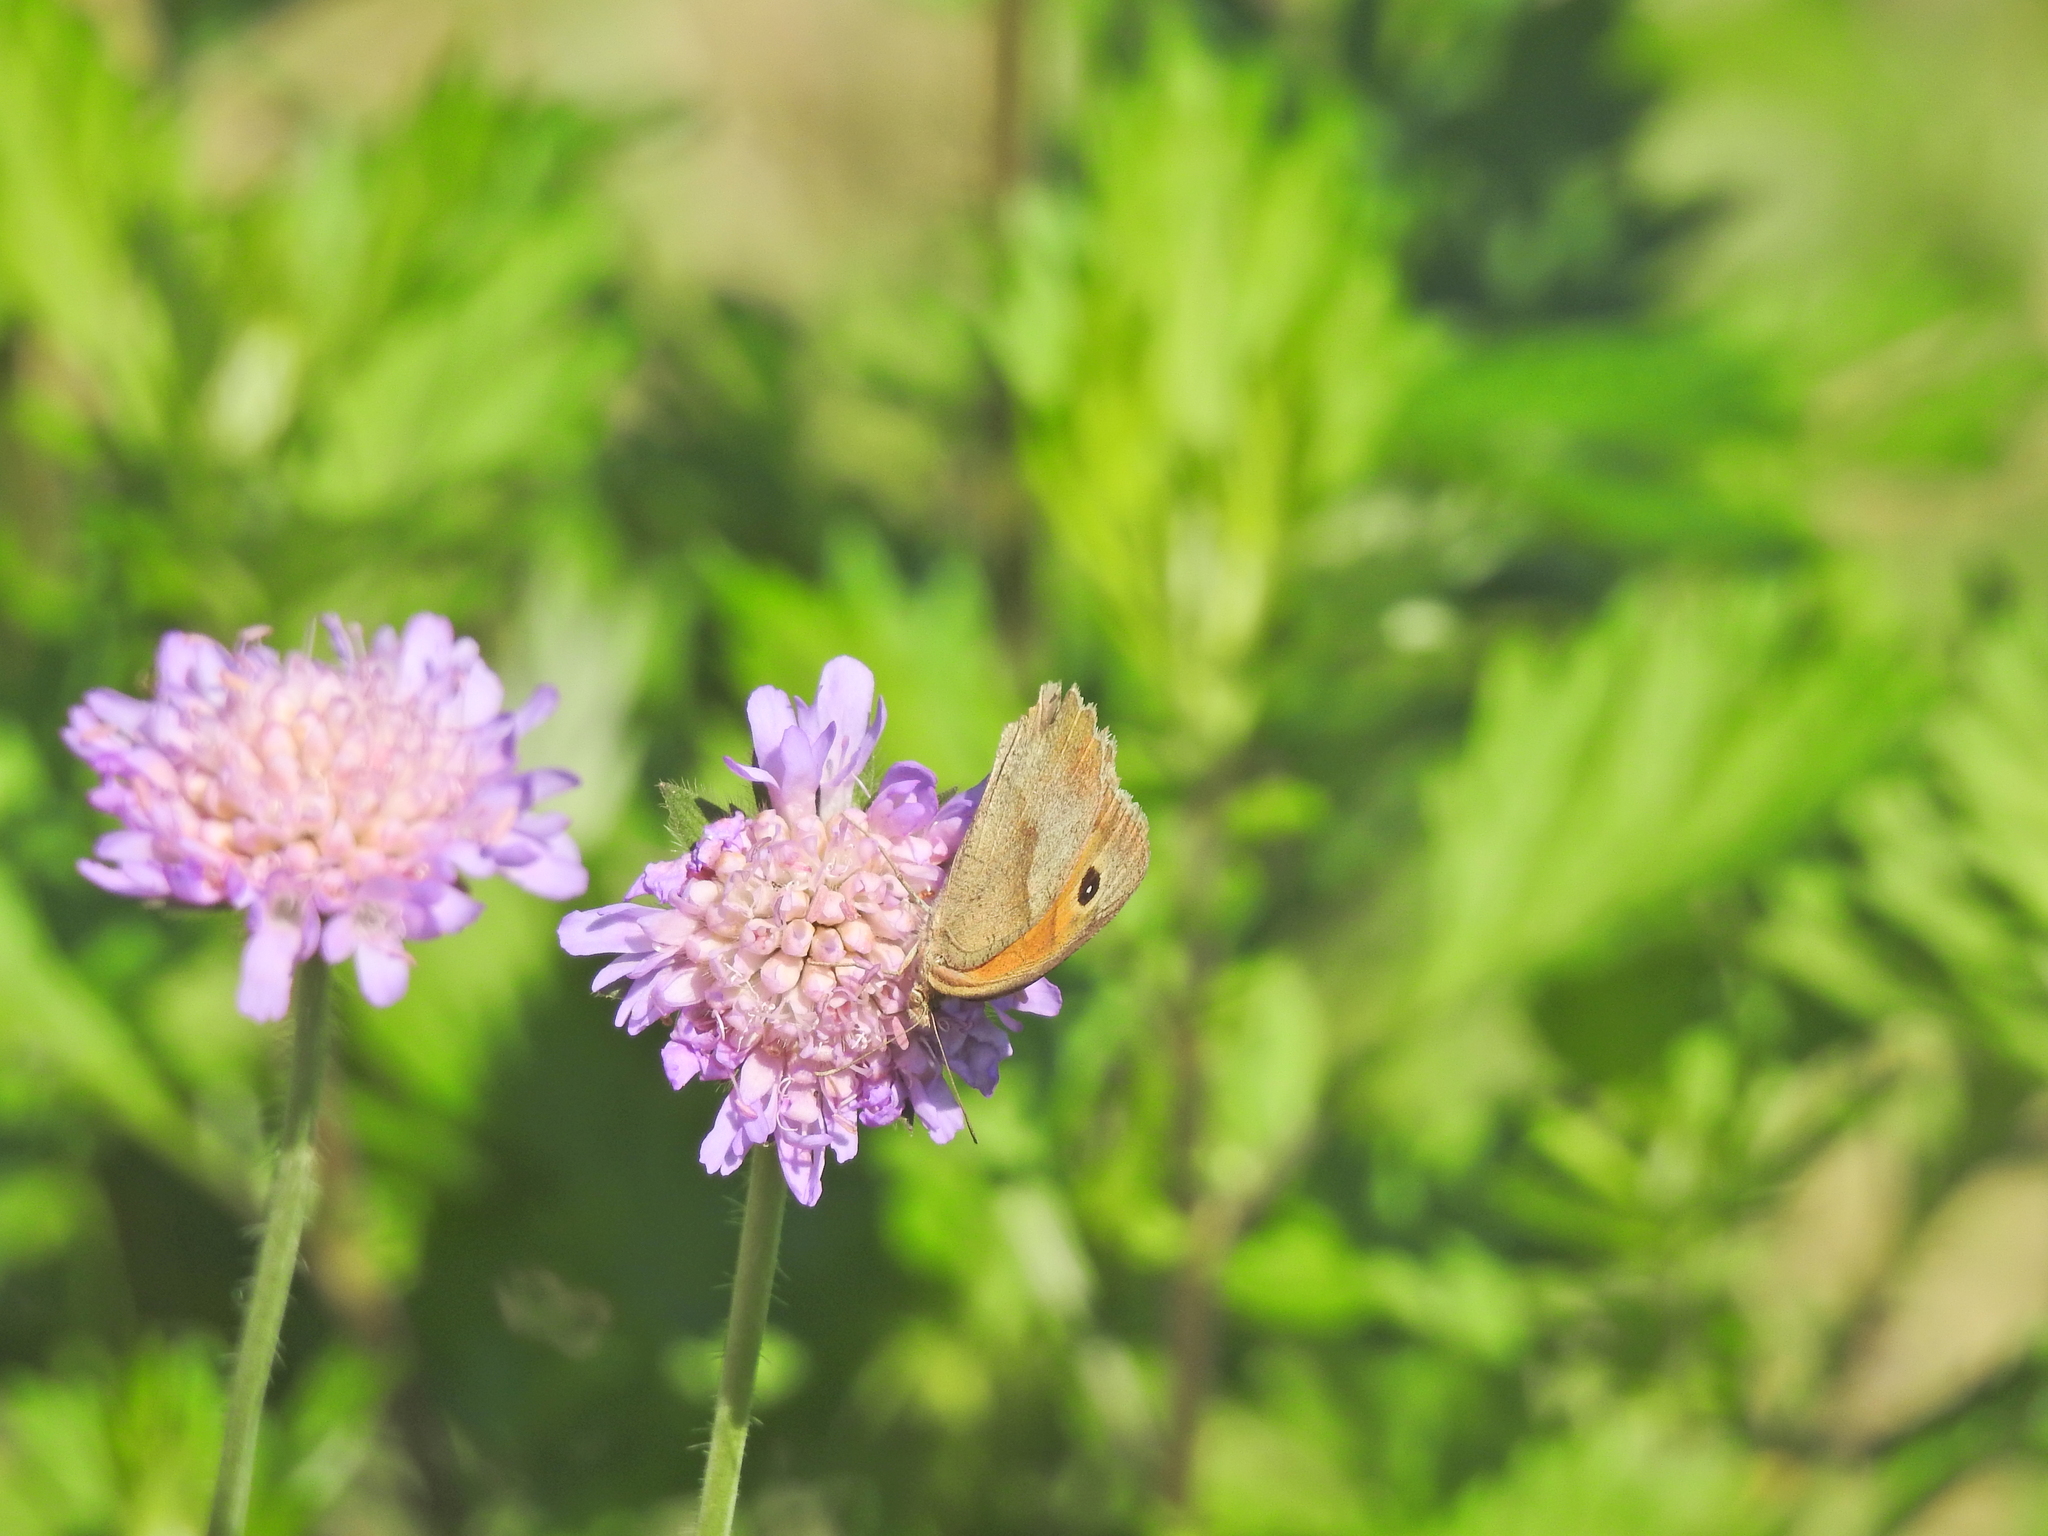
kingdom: Animalia
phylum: Arthropoda
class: Insecta
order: Lepidoptera
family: Nymphalidae
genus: Maniola
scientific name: Maniola jurtina
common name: Meadow brown
